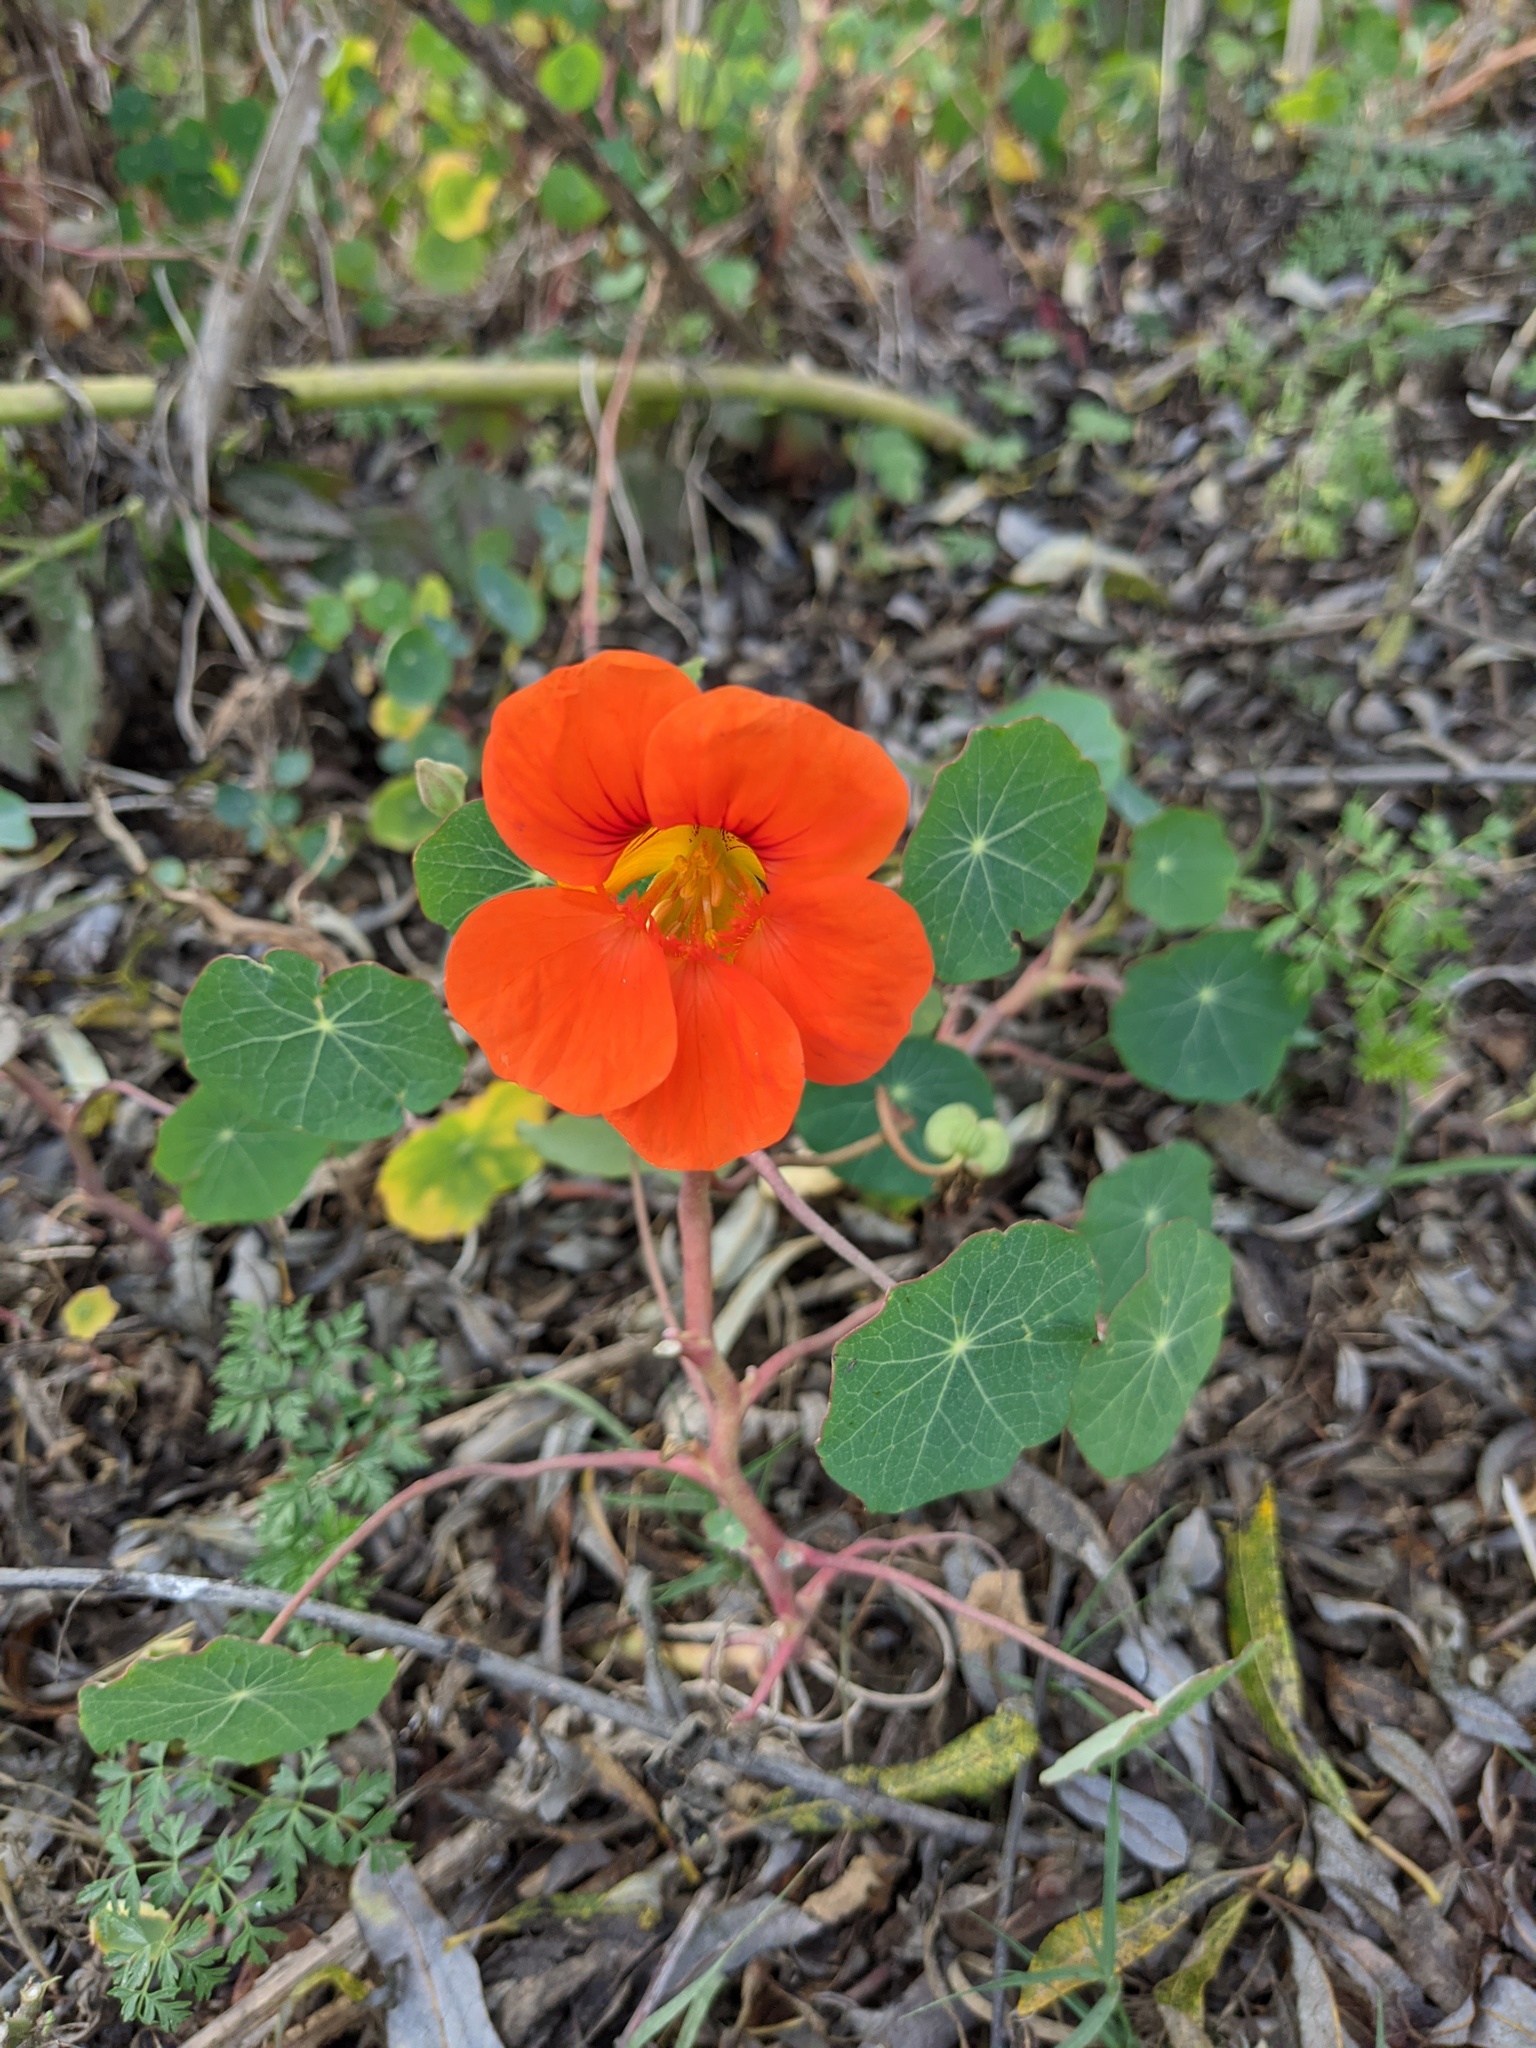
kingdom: Plantae
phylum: Tracheophyta
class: Magnoliopsida
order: Brassicales
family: Tropaeolaceae
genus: Tropaeolum
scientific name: Tropaeolum majus
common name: Nasturtium
